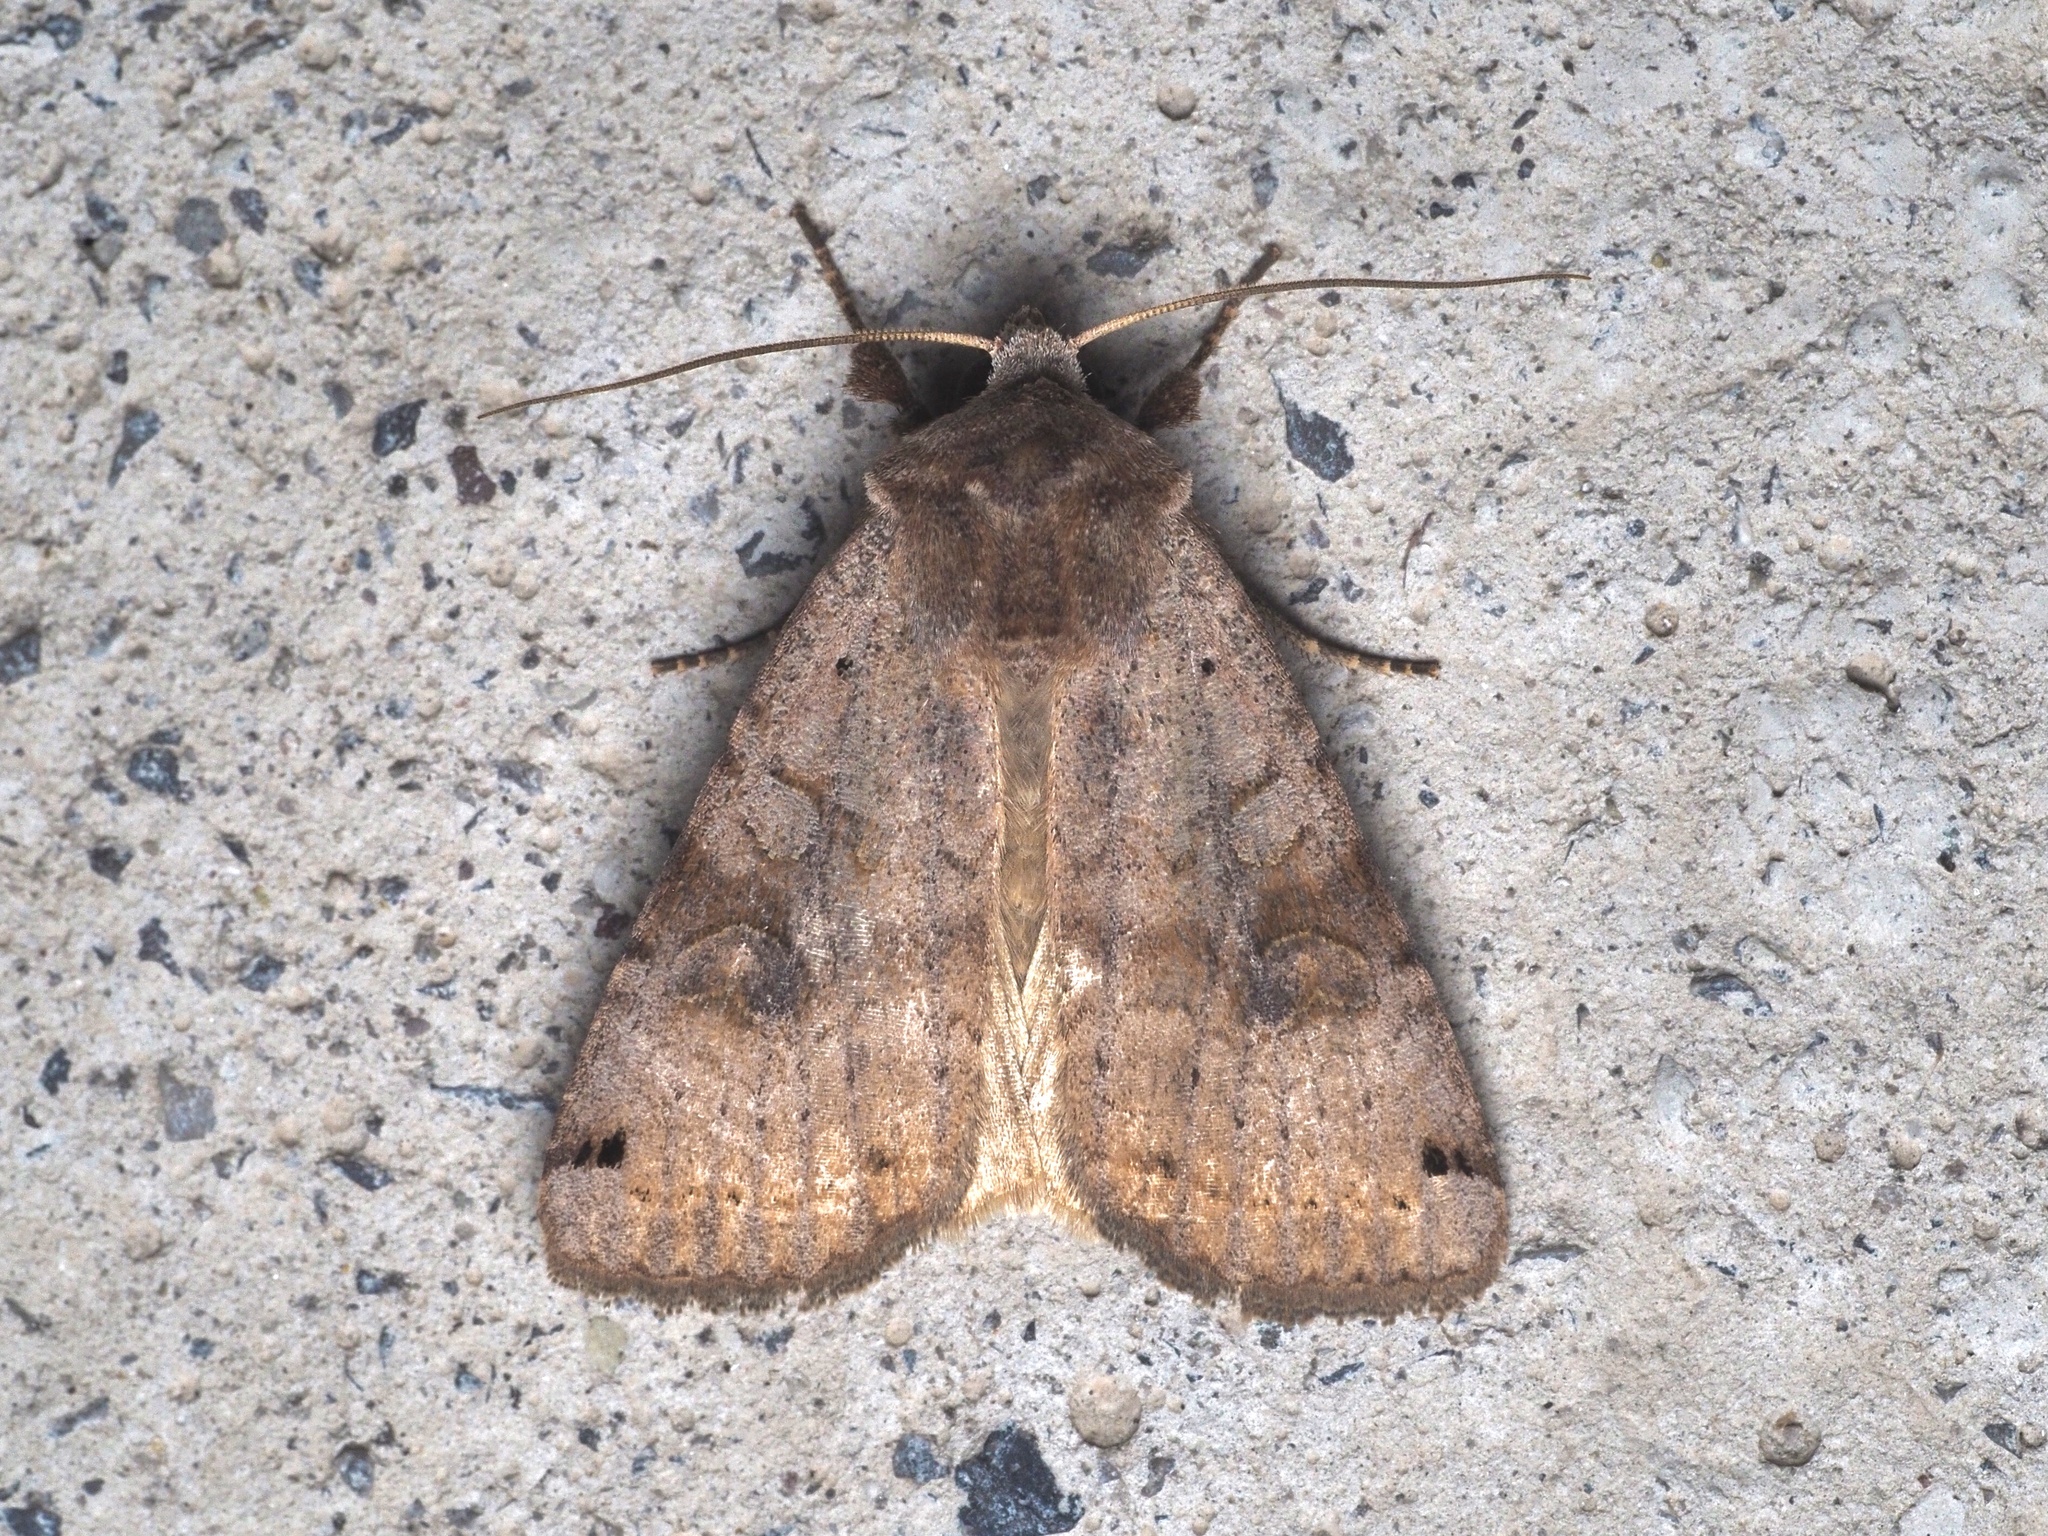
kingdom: Animalia
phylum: Arthropoda
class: Insecta
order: Lepidoptera
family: Noctuidae
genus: Xestia
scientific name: Xestia baja
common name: Dotted clay
